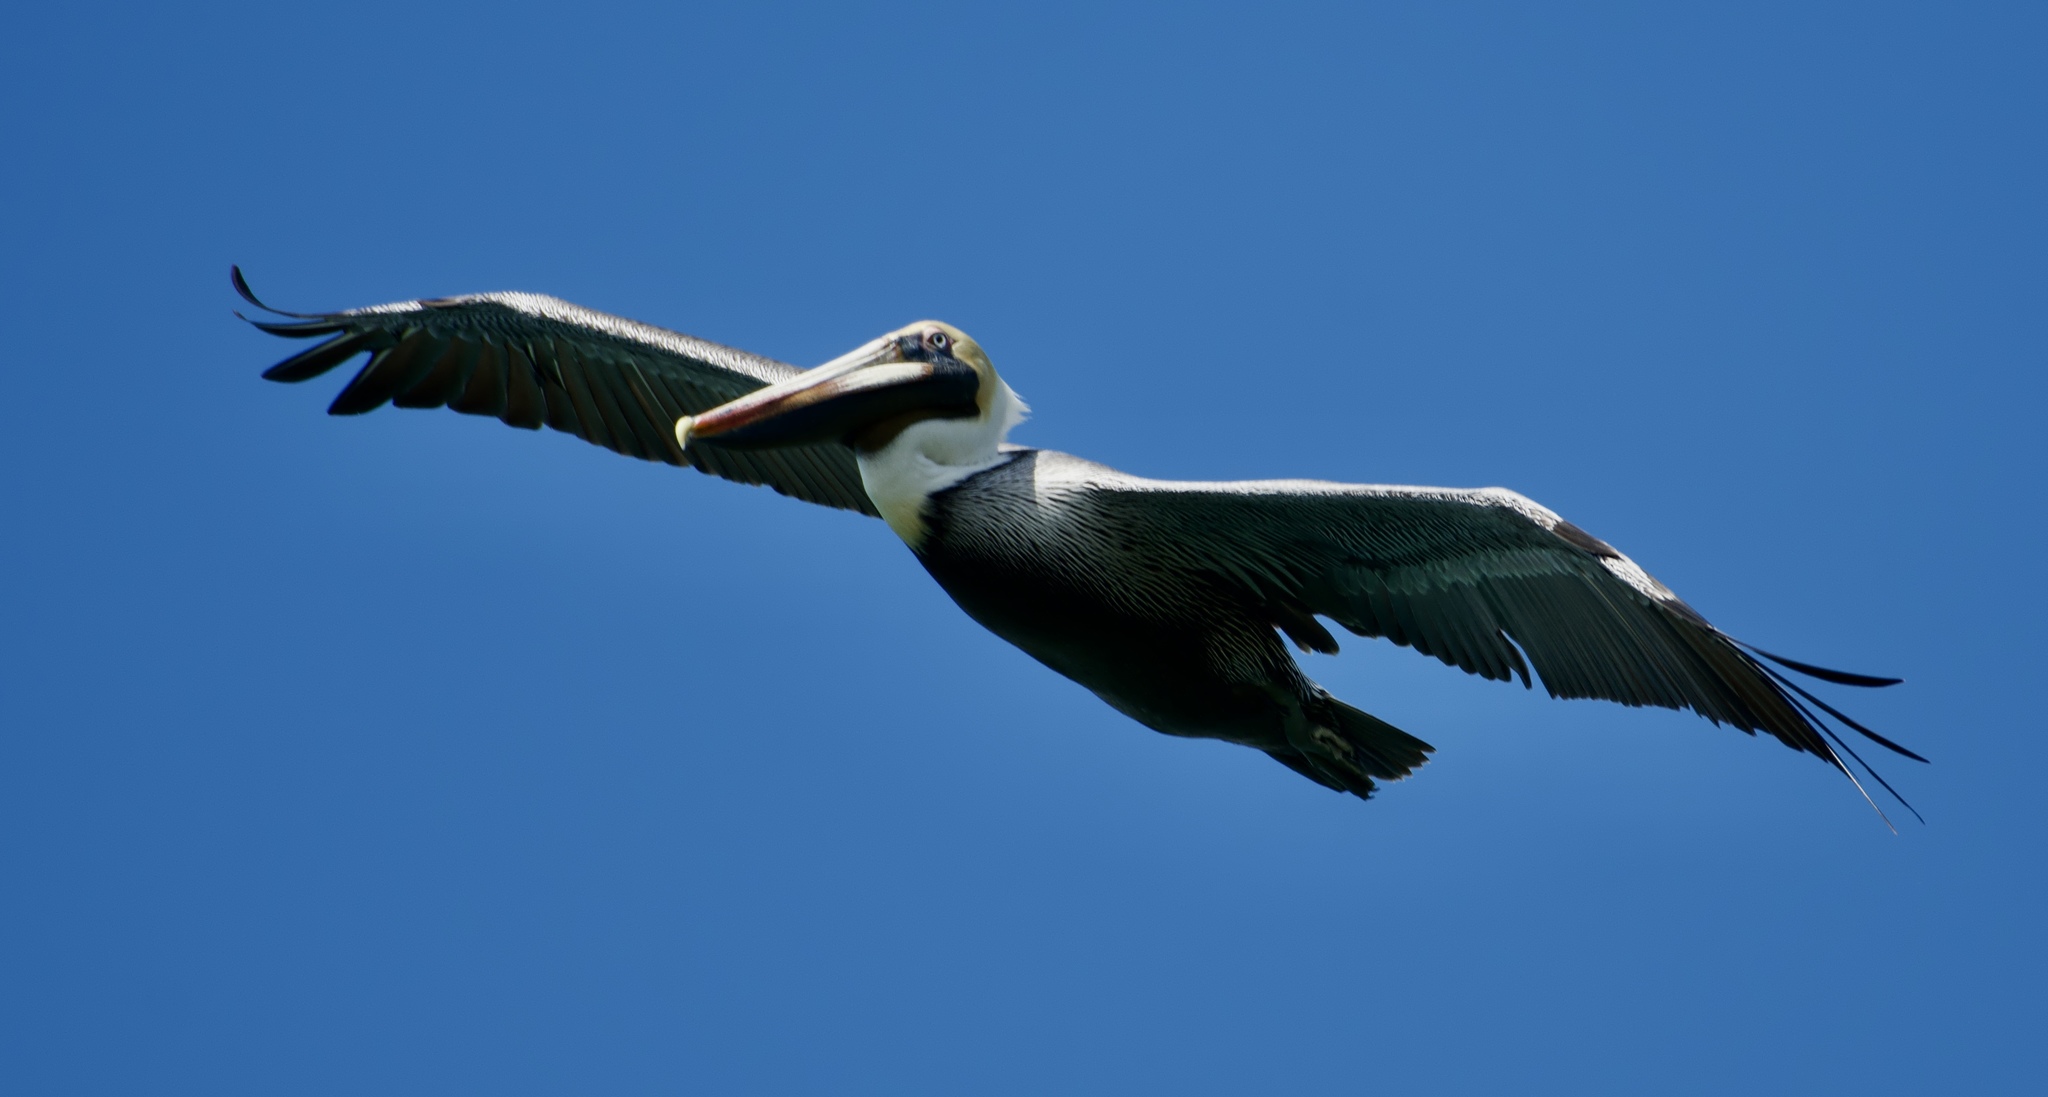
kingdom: Animalia
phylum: Chordata
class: Aves
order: Pelecaniformes
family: Pelecanidae
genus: Pelecanus
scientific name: Pelecanus occidentalis
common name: Brown pelican
